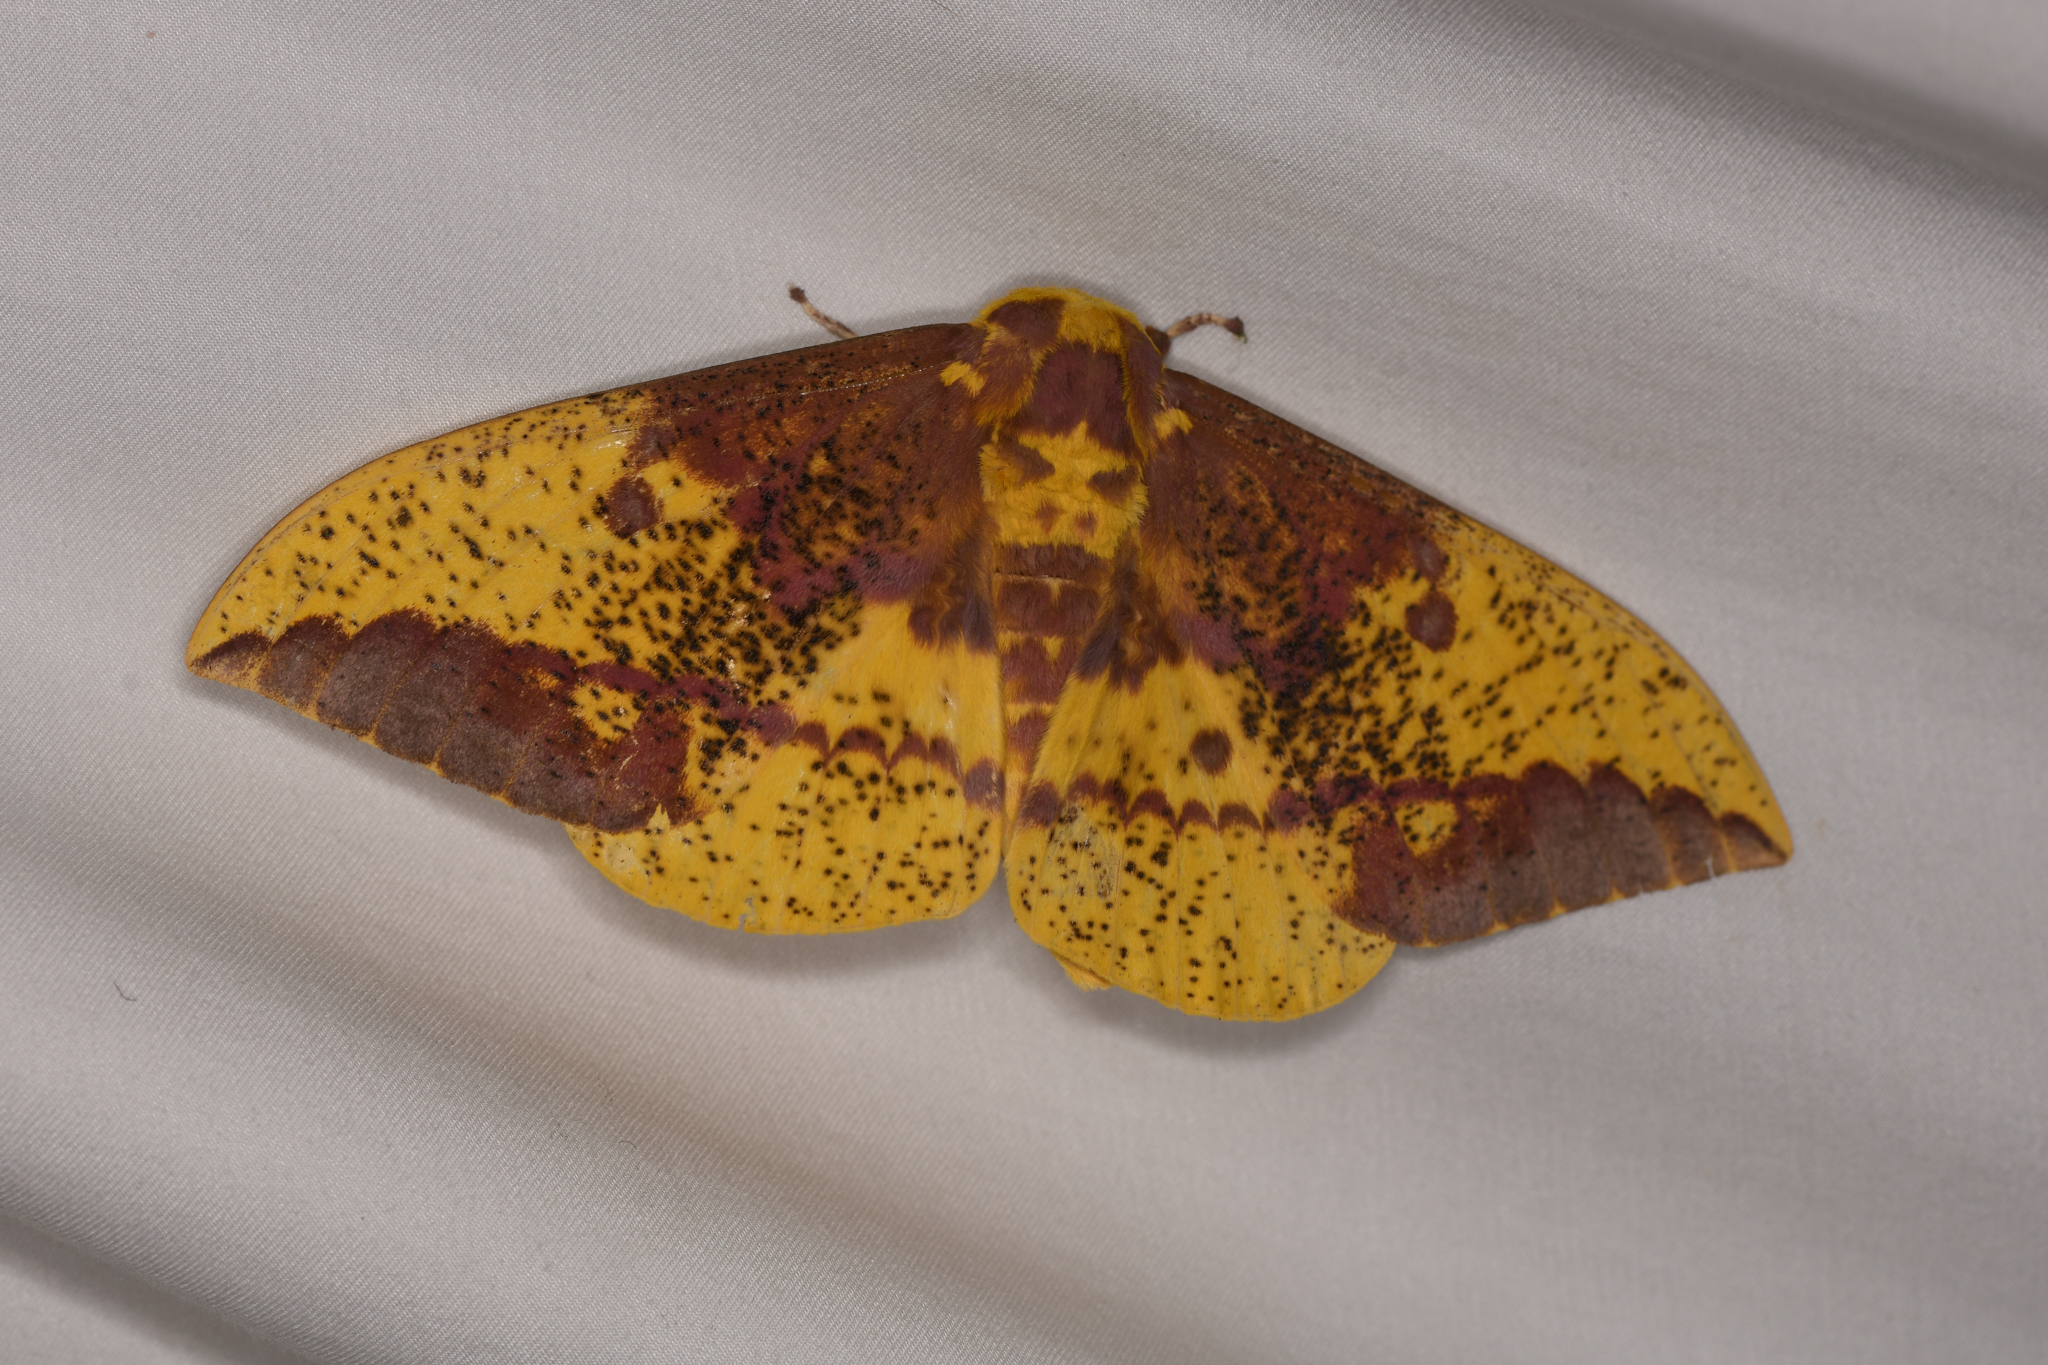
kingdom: Animalia
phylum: Arthropoda
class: Insecta
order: Lepidoptera
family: Saturniidae
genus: Eacles
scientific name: Eacles imperialis
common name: Imperial moth
